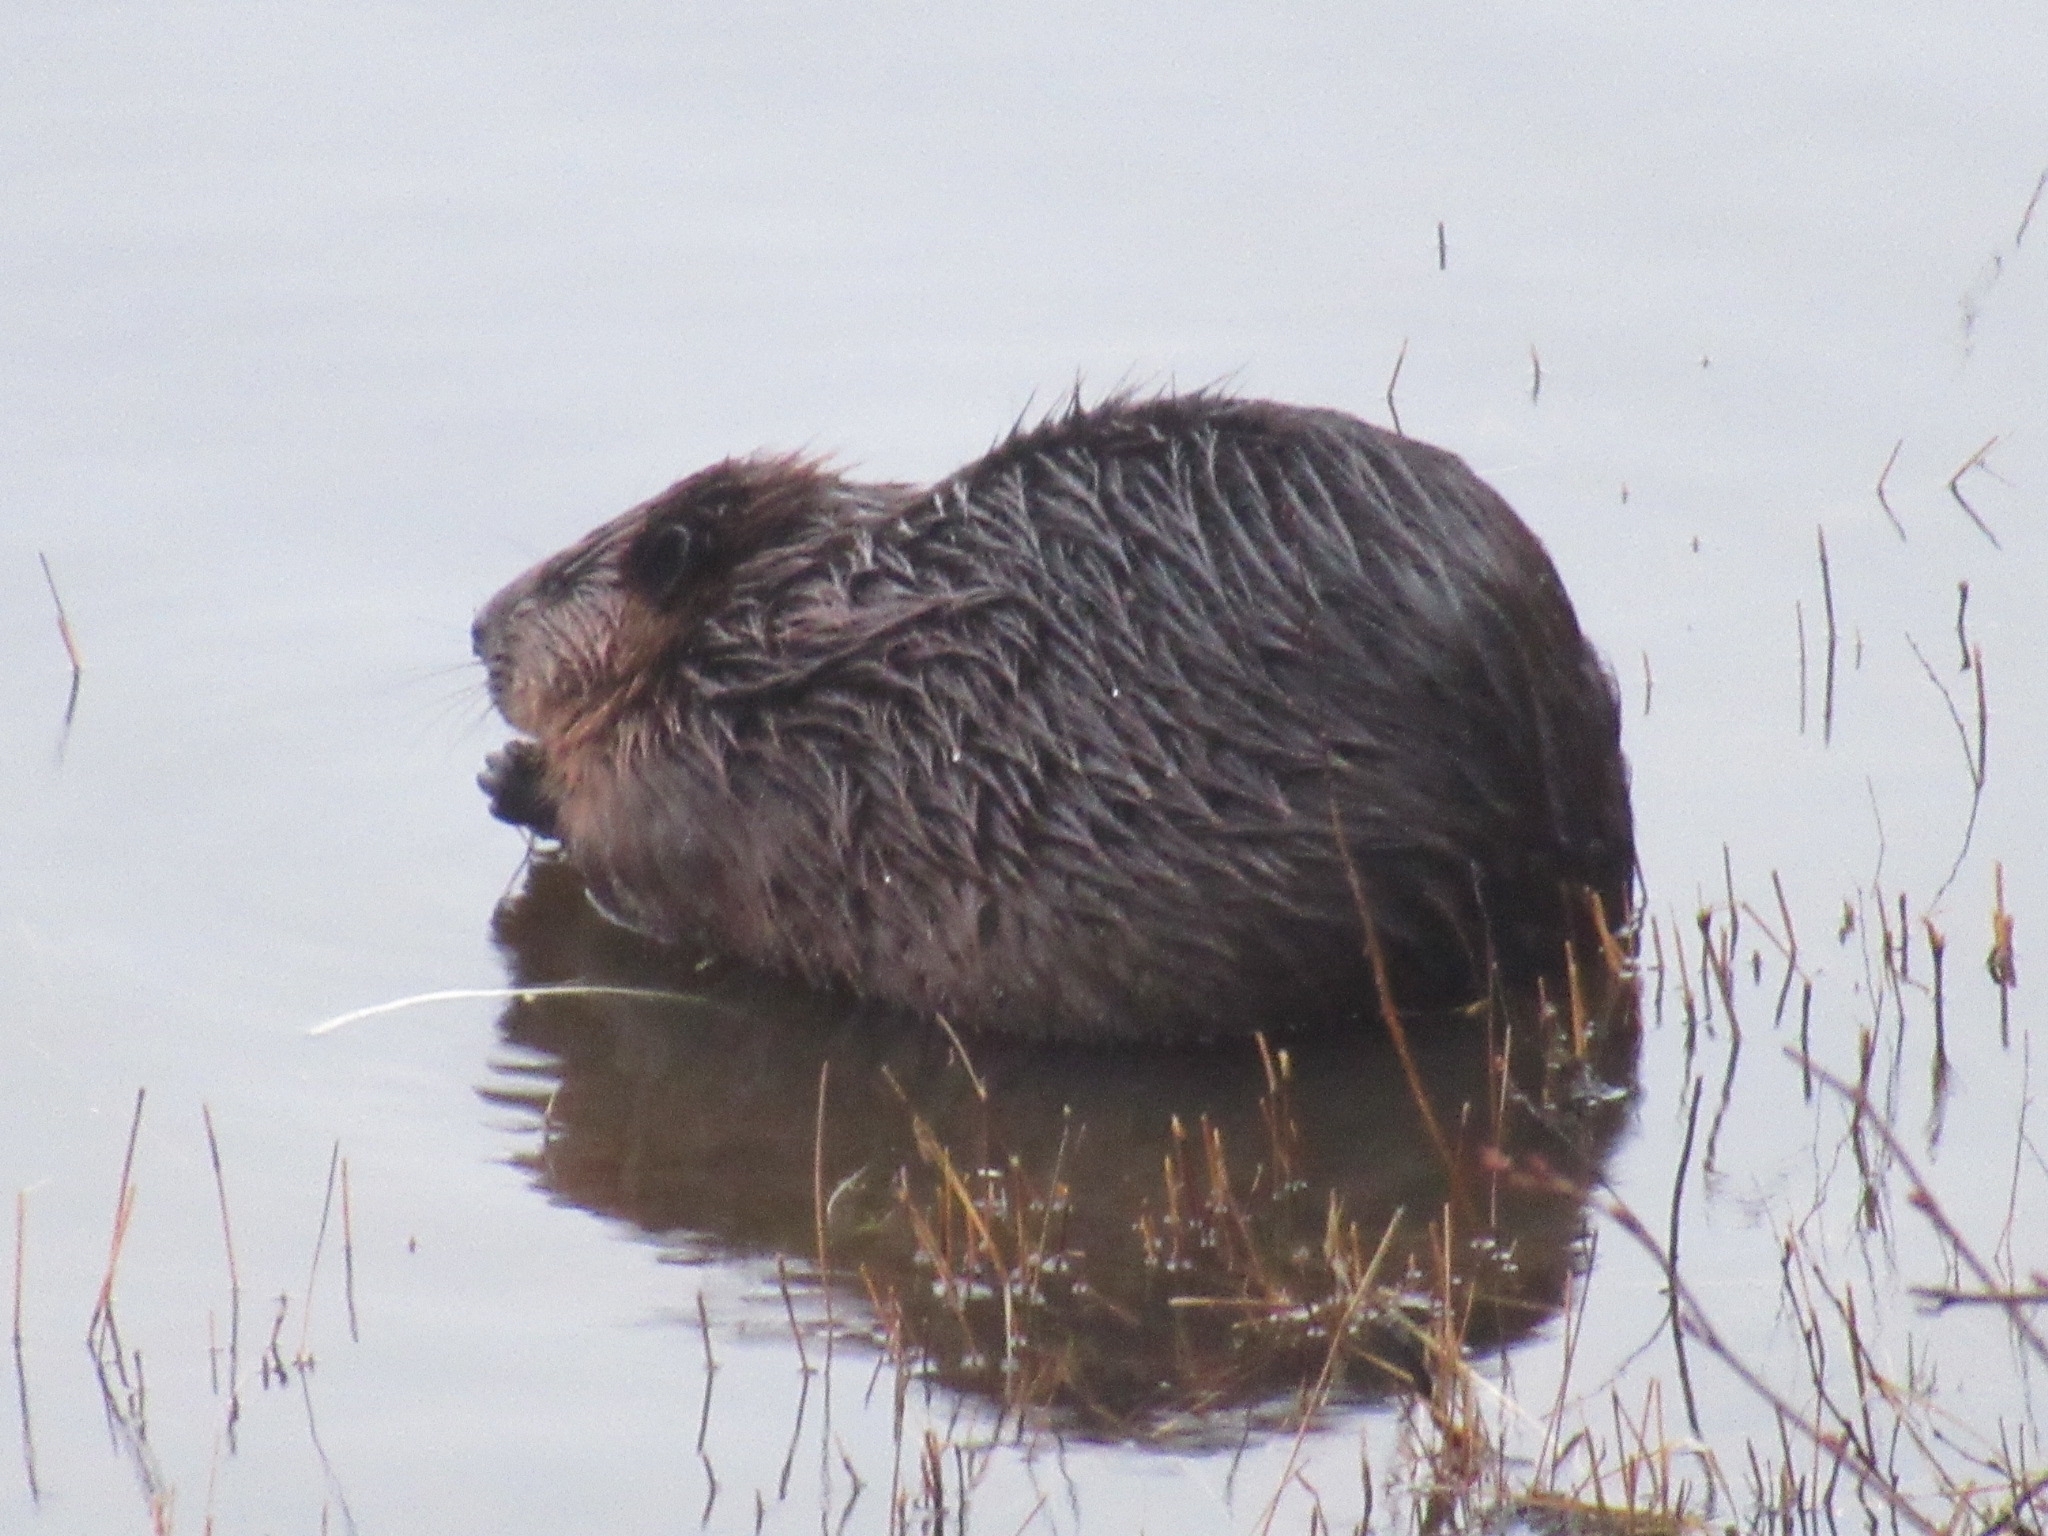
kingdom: Animalia
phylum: Chordata
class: Mammalia
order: Rodentia
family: Castoridae
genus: Castor
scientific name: Castor canadensis
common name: American beaver
